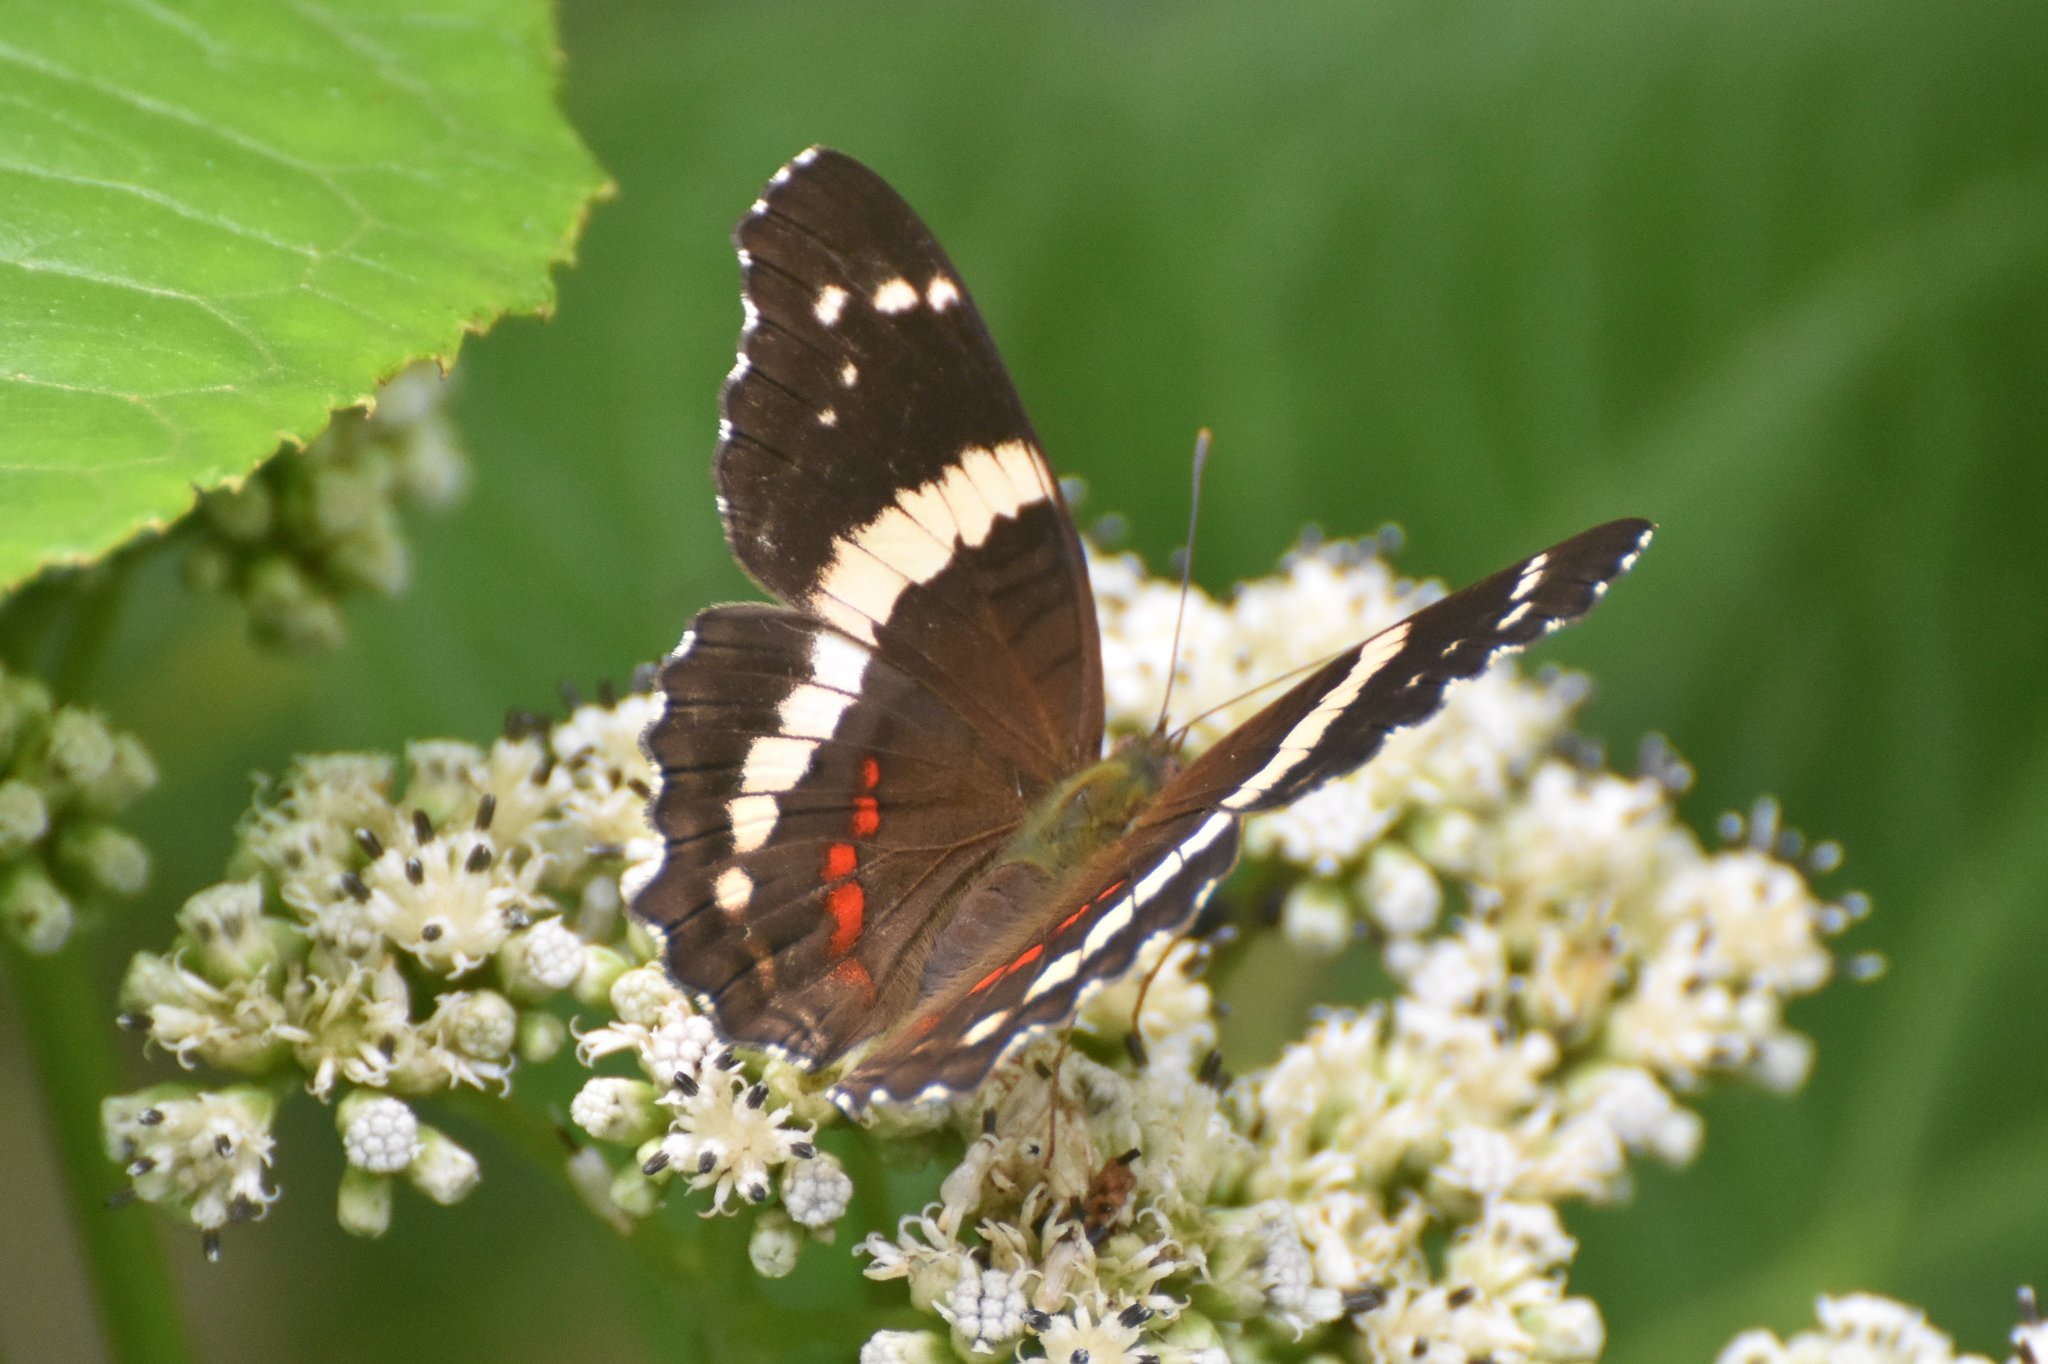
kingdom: Animalia
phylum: Arthropoda
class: Insecta
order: Lepidoptera
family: Nymphalidae
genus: Anartia
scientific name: Anartia fatima
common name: Banded peacock
